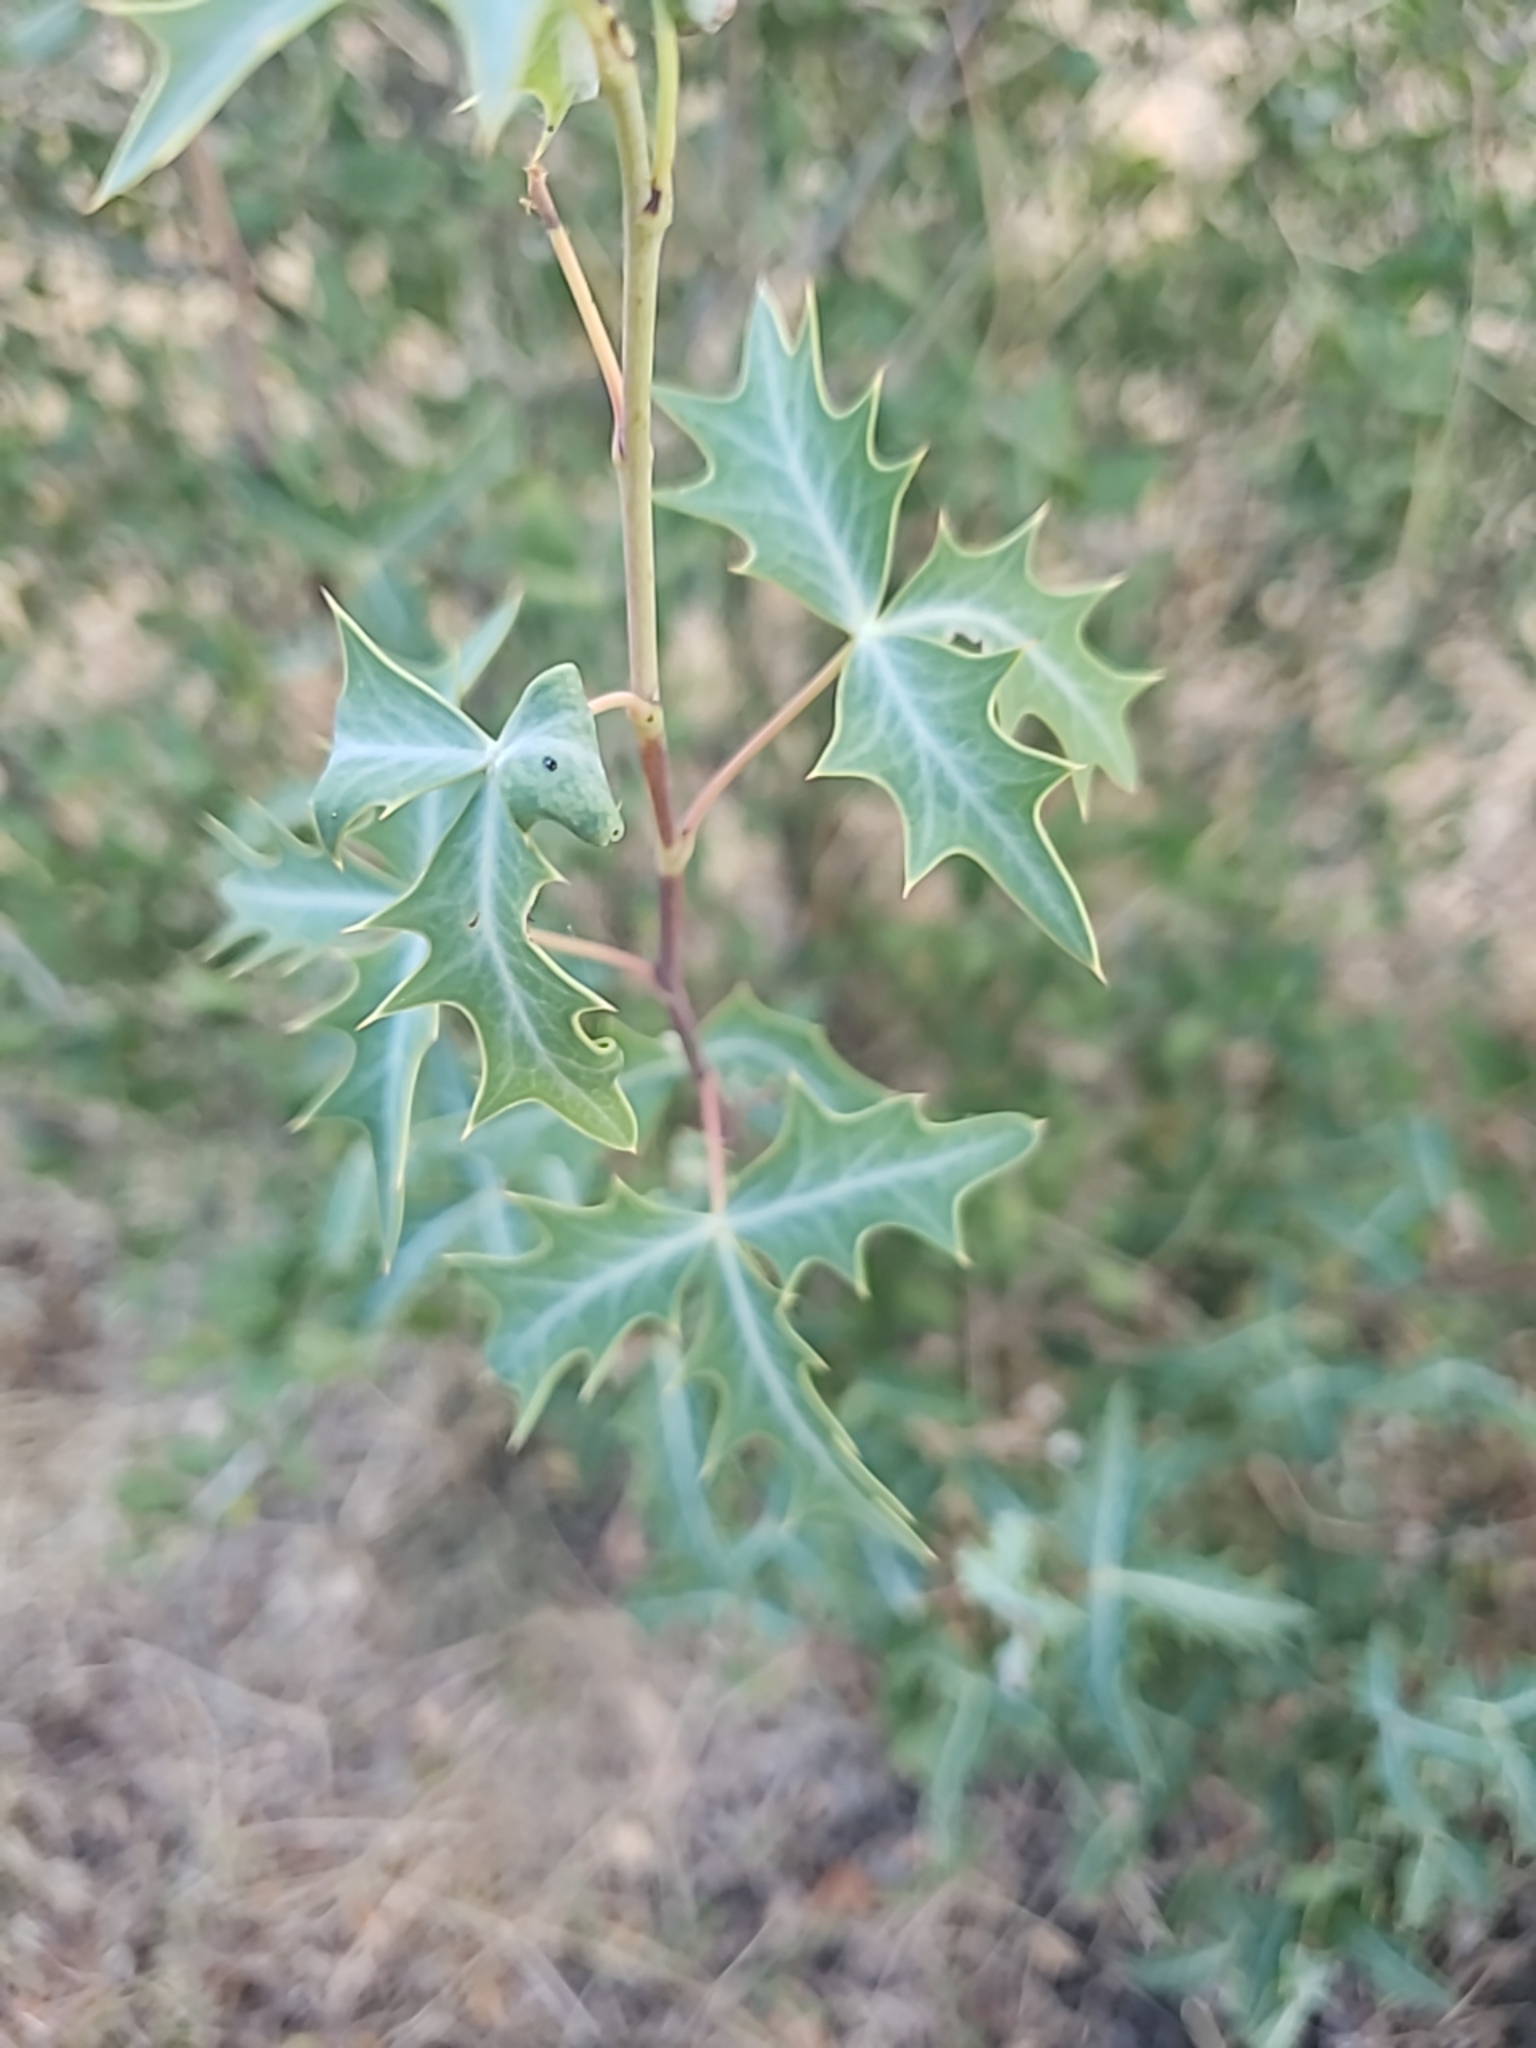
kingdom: Plantae
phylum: Tracheophyta
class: Magnoliopsida
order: Ranunculales
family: Berberidaceae
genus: Alloberberis
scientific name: Alloberberis trifoliolata
